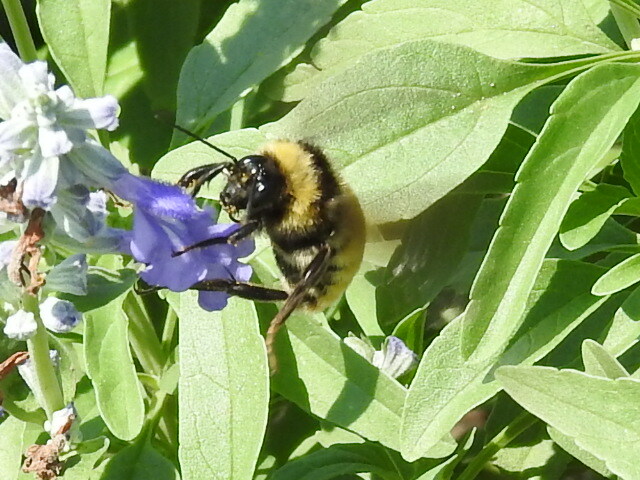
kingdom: Animalia
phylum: Arthropoda
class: Insecta
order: Hymenoptera
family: Apidae
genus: Bombus
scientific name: Bombus pensylvanicus
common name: Bumble bee
